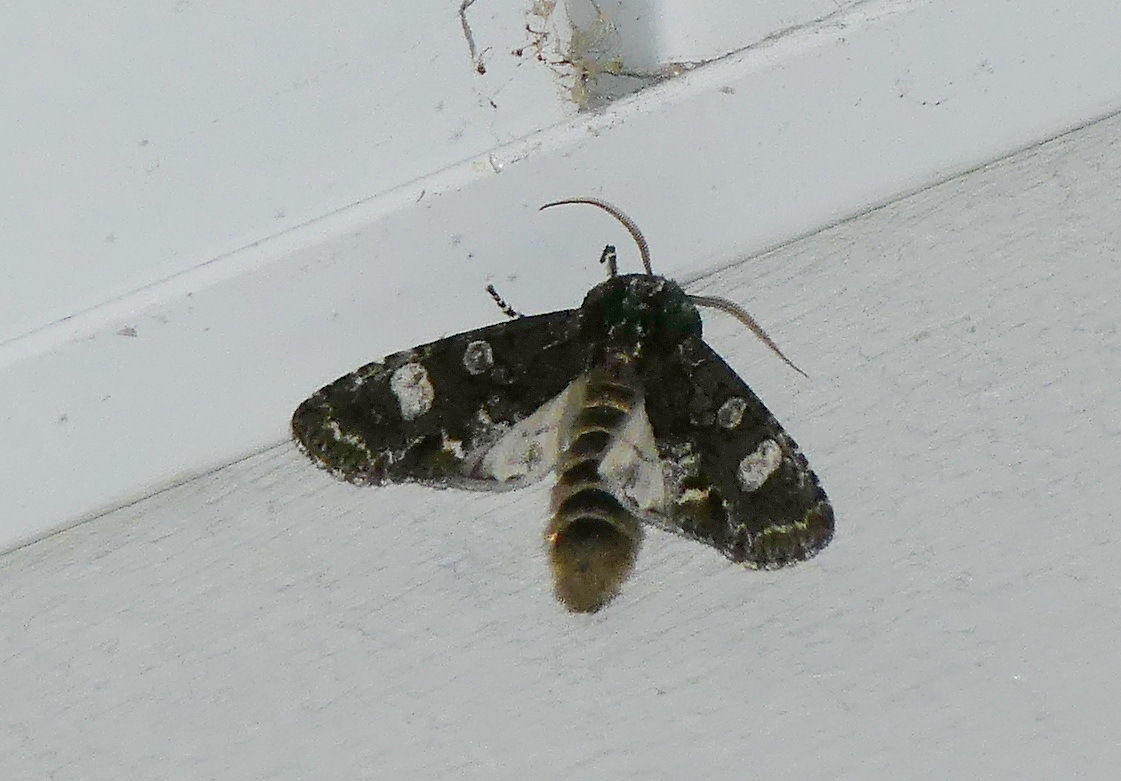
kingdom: Animalia
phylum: Arthropoda
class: Insecta
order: Lepidoptera
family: Noctuidae
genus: Psaphida
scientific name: Psaphida grotei
